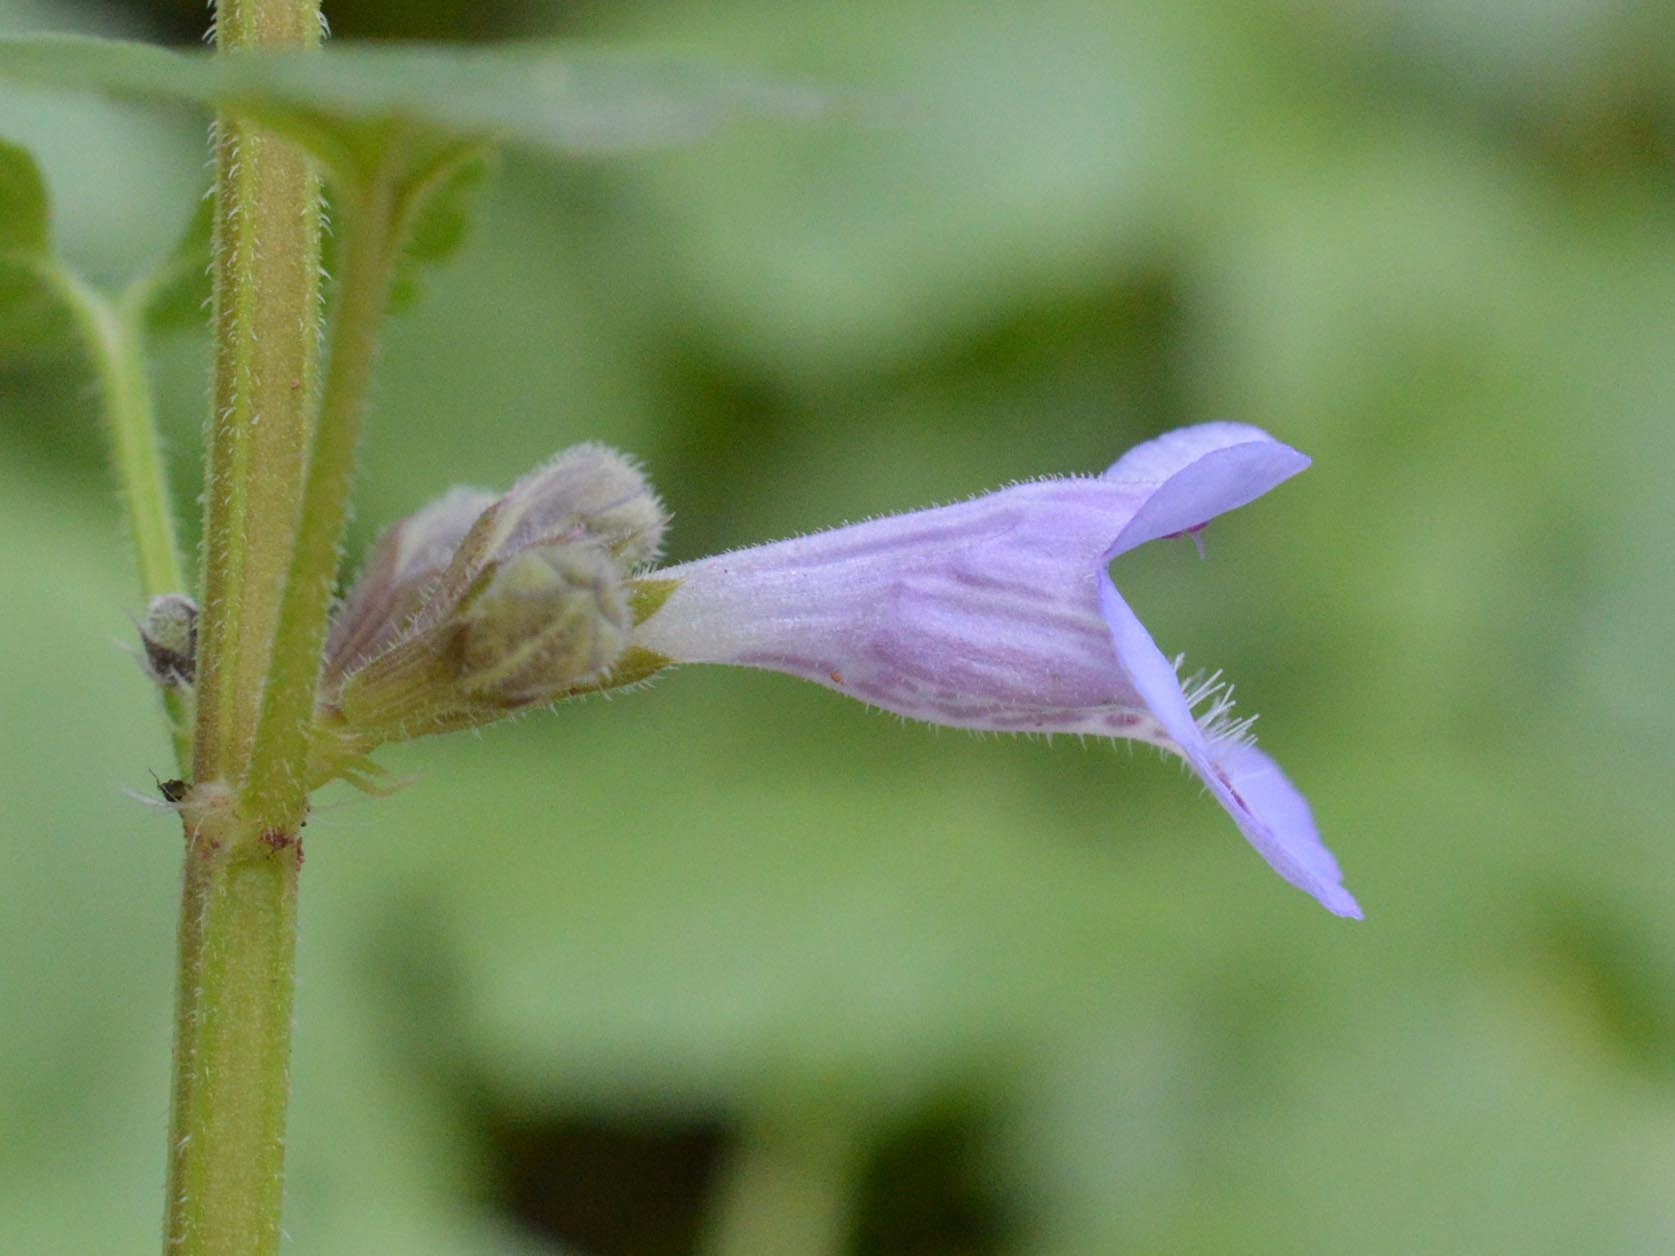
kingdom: Plantae
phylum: Tracheophyta
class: Magnoliopsida
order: Lamiales
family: Lamiaceae
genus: Glechoma
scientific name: Glechoma hederacea
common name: Ground ivy
